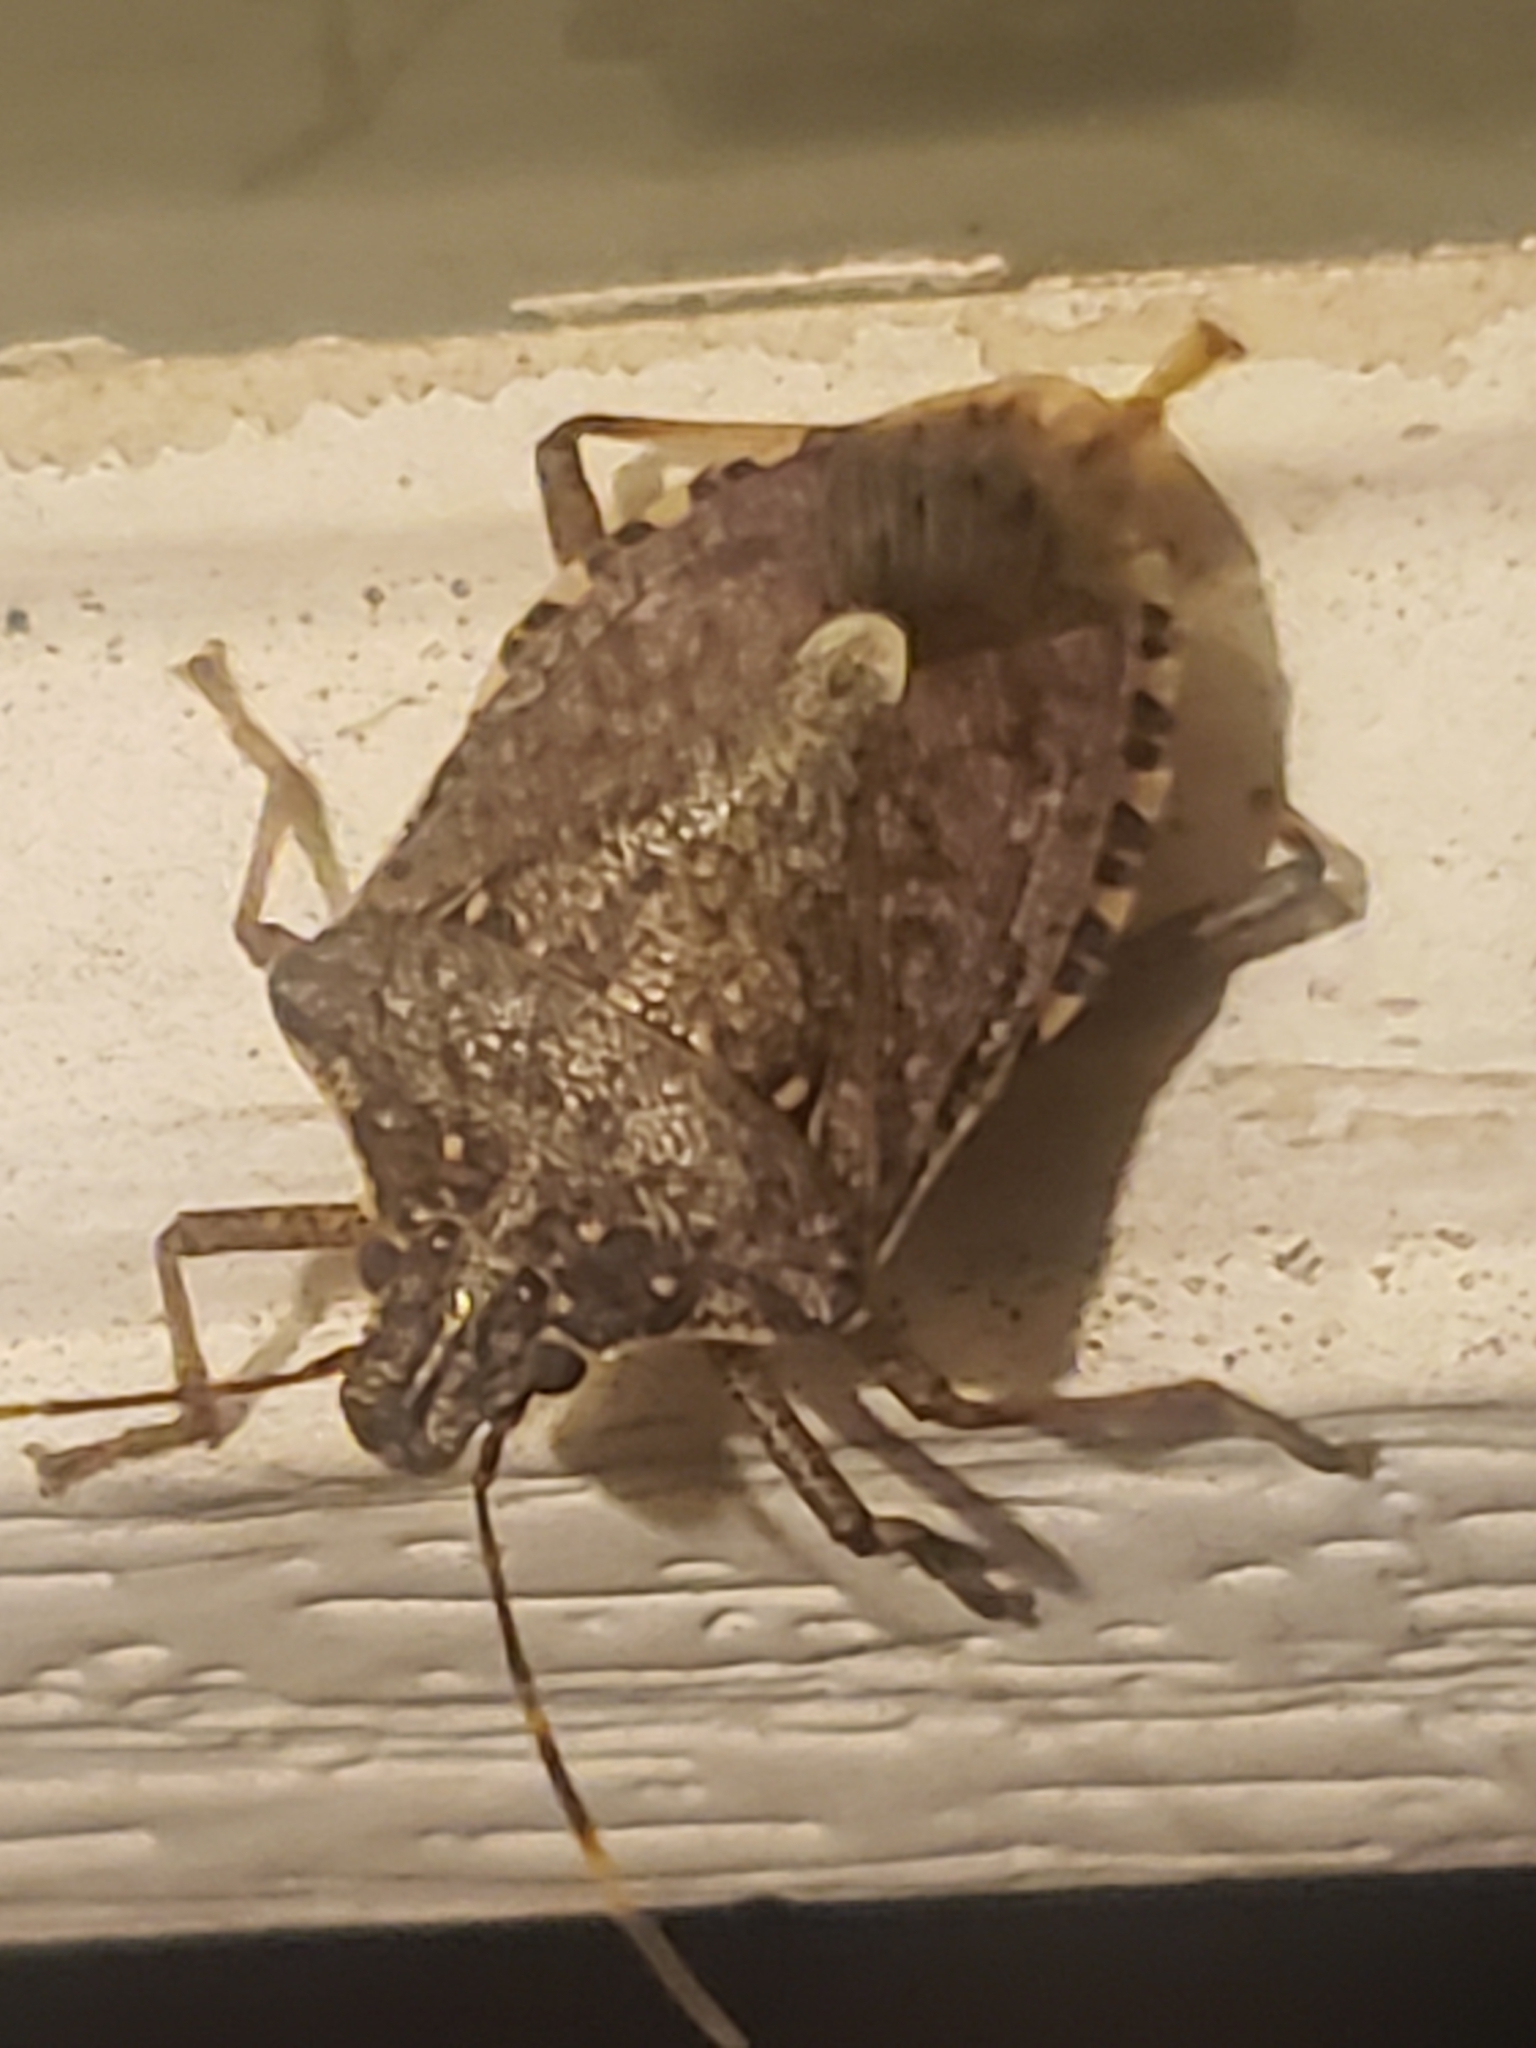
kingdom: Animalia
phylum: Arthropoda
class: Insecta
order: Hemiptera
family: Pentatomidae
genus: Halyomorpha
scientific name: Halyomorpha halys
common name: Brown marmorated stink bug
